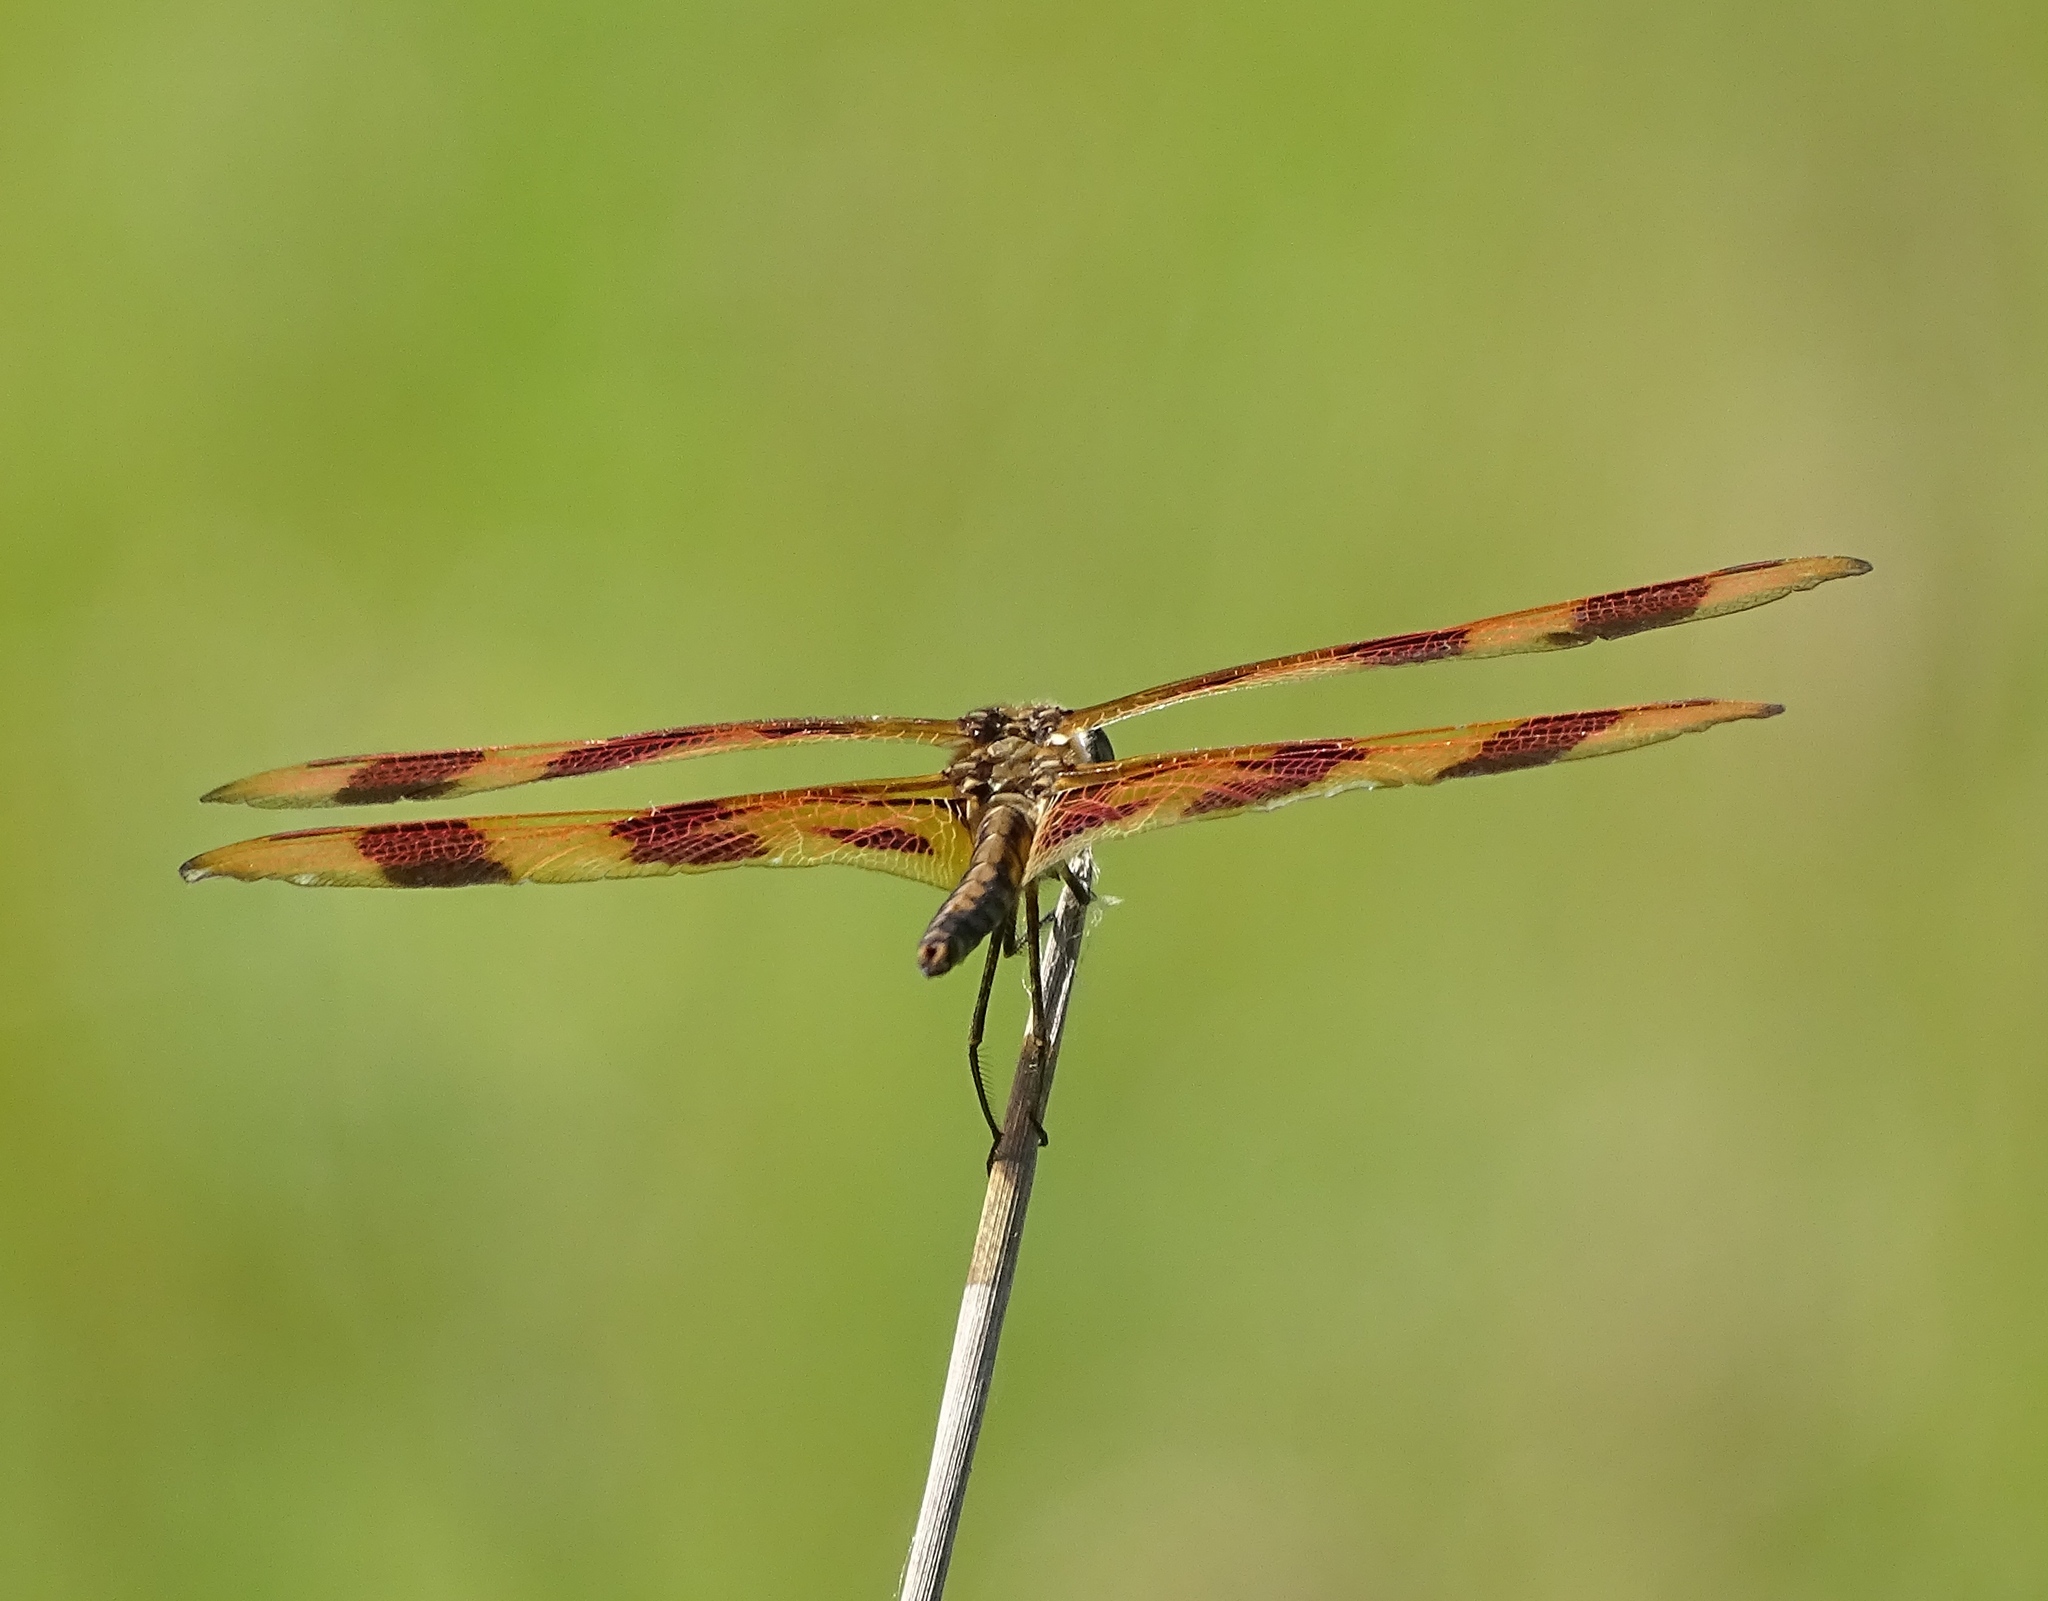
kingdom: Animalia
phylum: Arthropoda
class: Insecta
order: Odonata
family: Libellulidae
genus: Celithemis
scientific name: Celithemis eponina
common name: Halloween pennant
